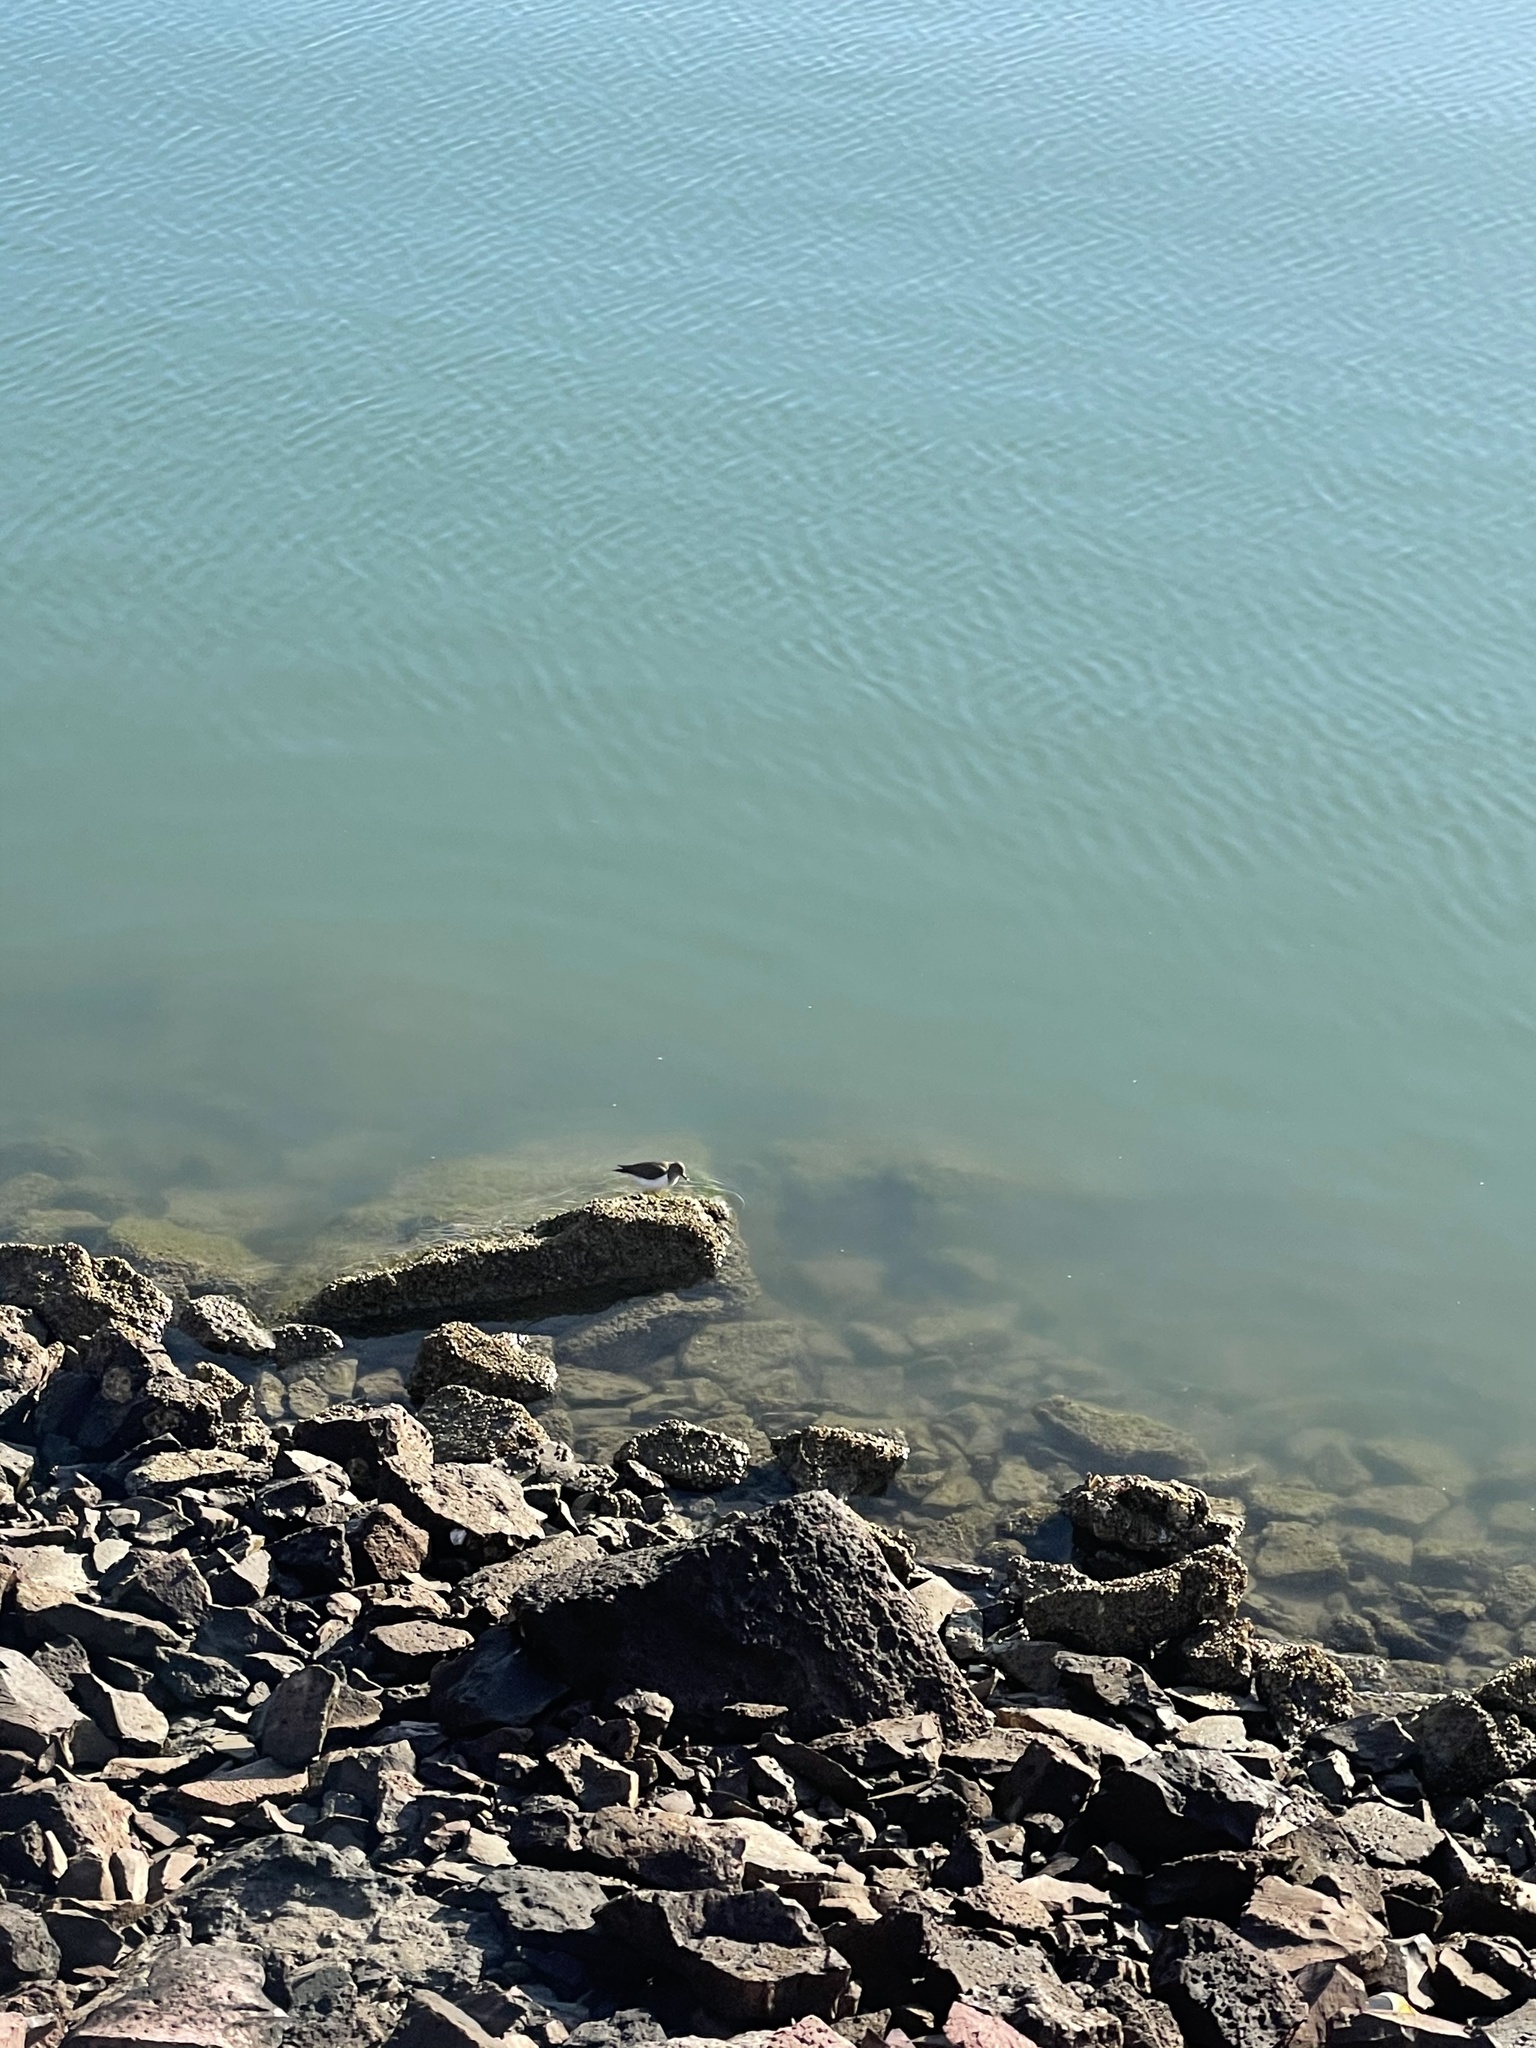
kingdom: Animalia
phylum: Chordata
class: Aves
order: Charadriiformes
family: Scolopacidae
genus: Actitis
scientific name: Actitis macularius
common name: Spotted sandpiper
